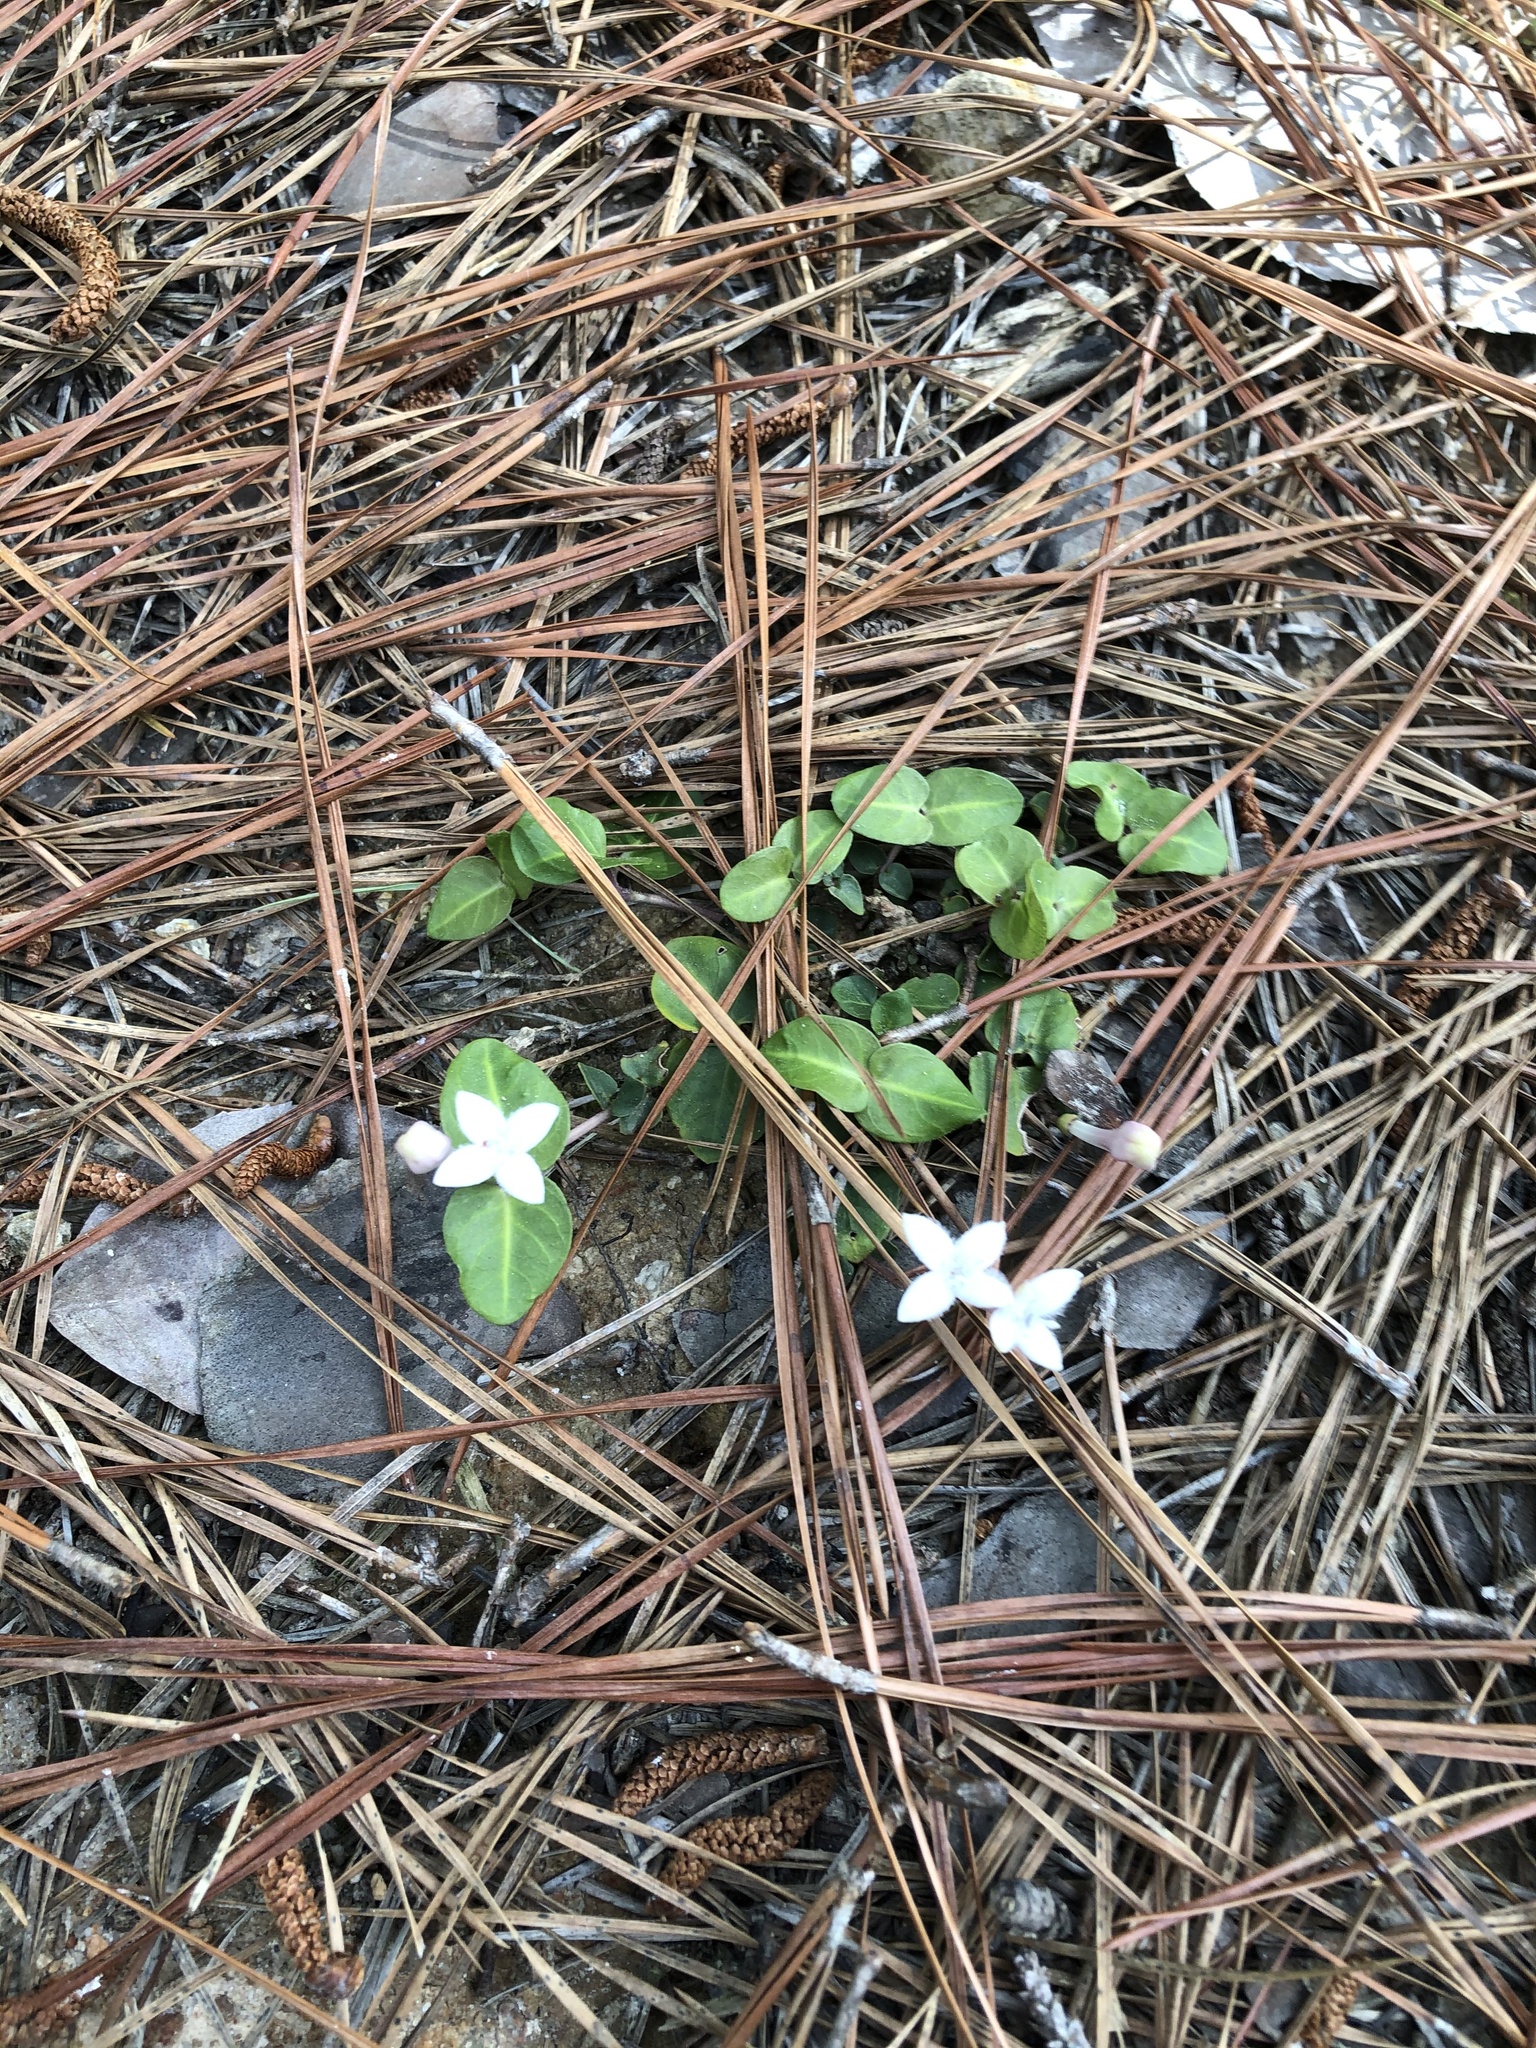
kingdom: Plantae
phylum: Tracheophyta
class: Magnoliopsida
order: Gentianales
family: Rubiaceae
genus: Mitchella
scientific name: Mitchella repens
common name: Partridge-berry
